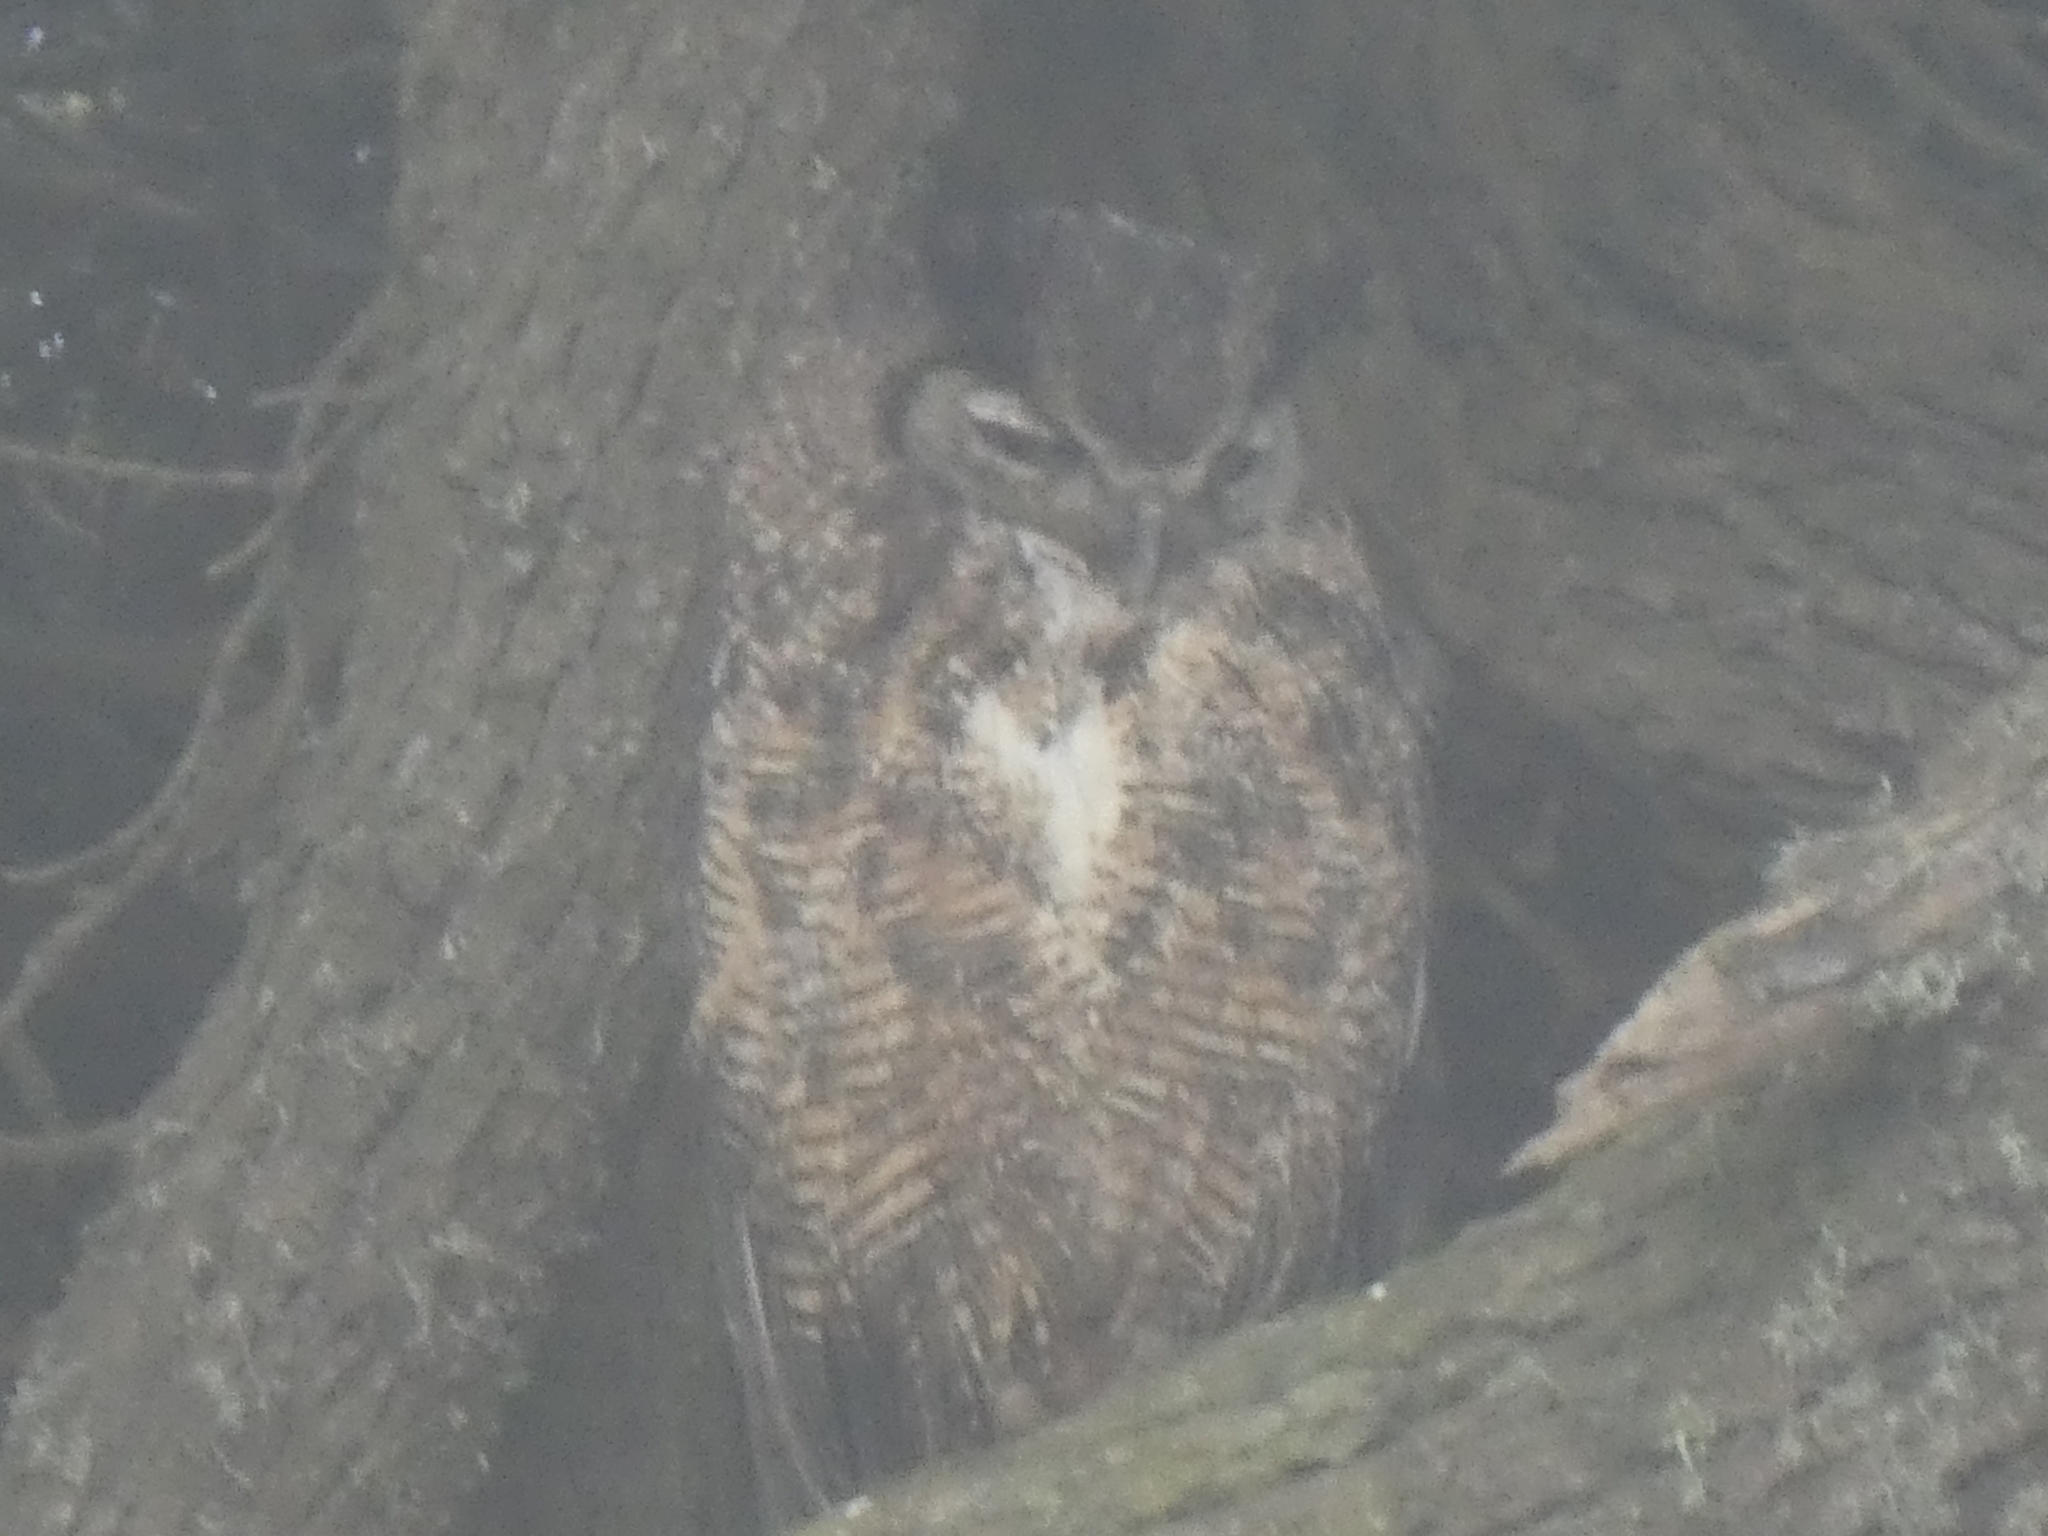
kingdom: Animalia
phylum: Chordata
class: Aves
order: Strigiformes
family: Strigidae
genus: Bubo
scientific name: Bubo virginianus
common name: Great horned owl
